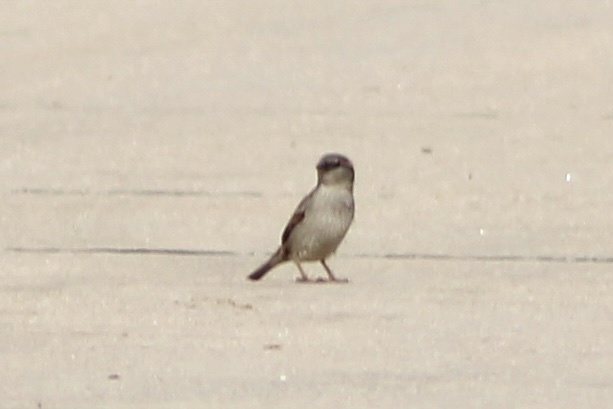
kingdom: Animalia
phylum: Chordata
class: Aves
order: Passeriformes
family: Passeridae
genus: Passer
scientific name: Passer domesticus
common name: House sparrow
